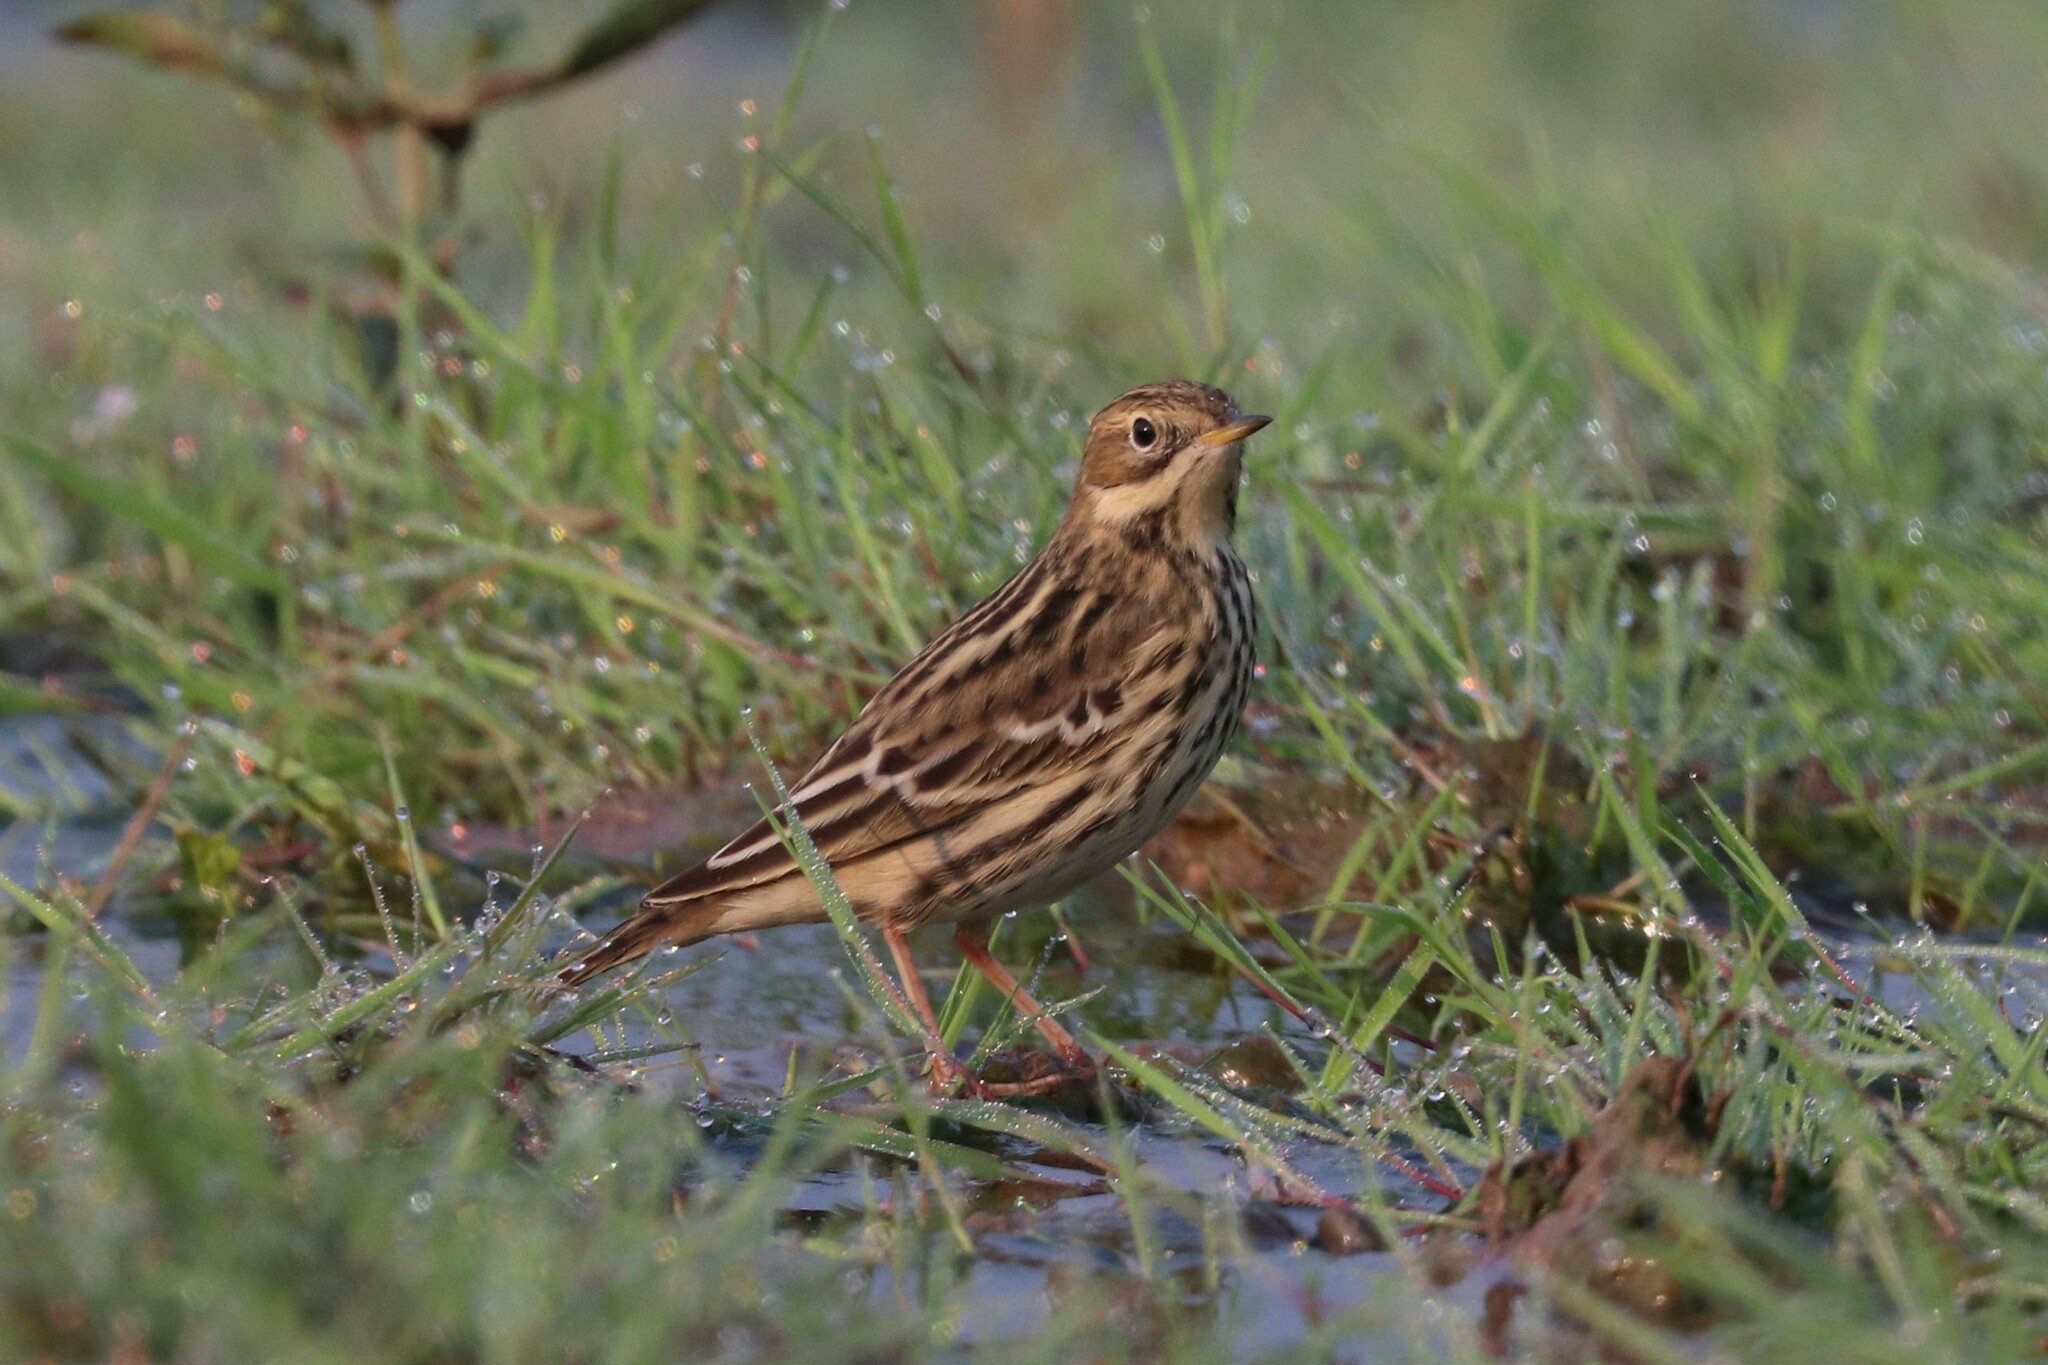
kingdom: Animalia
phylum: Chordata
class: Aves
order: Passeriformes
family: Motacillidae
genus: Anthus
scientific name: Anthus cervinus
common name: Red-throated pipit
